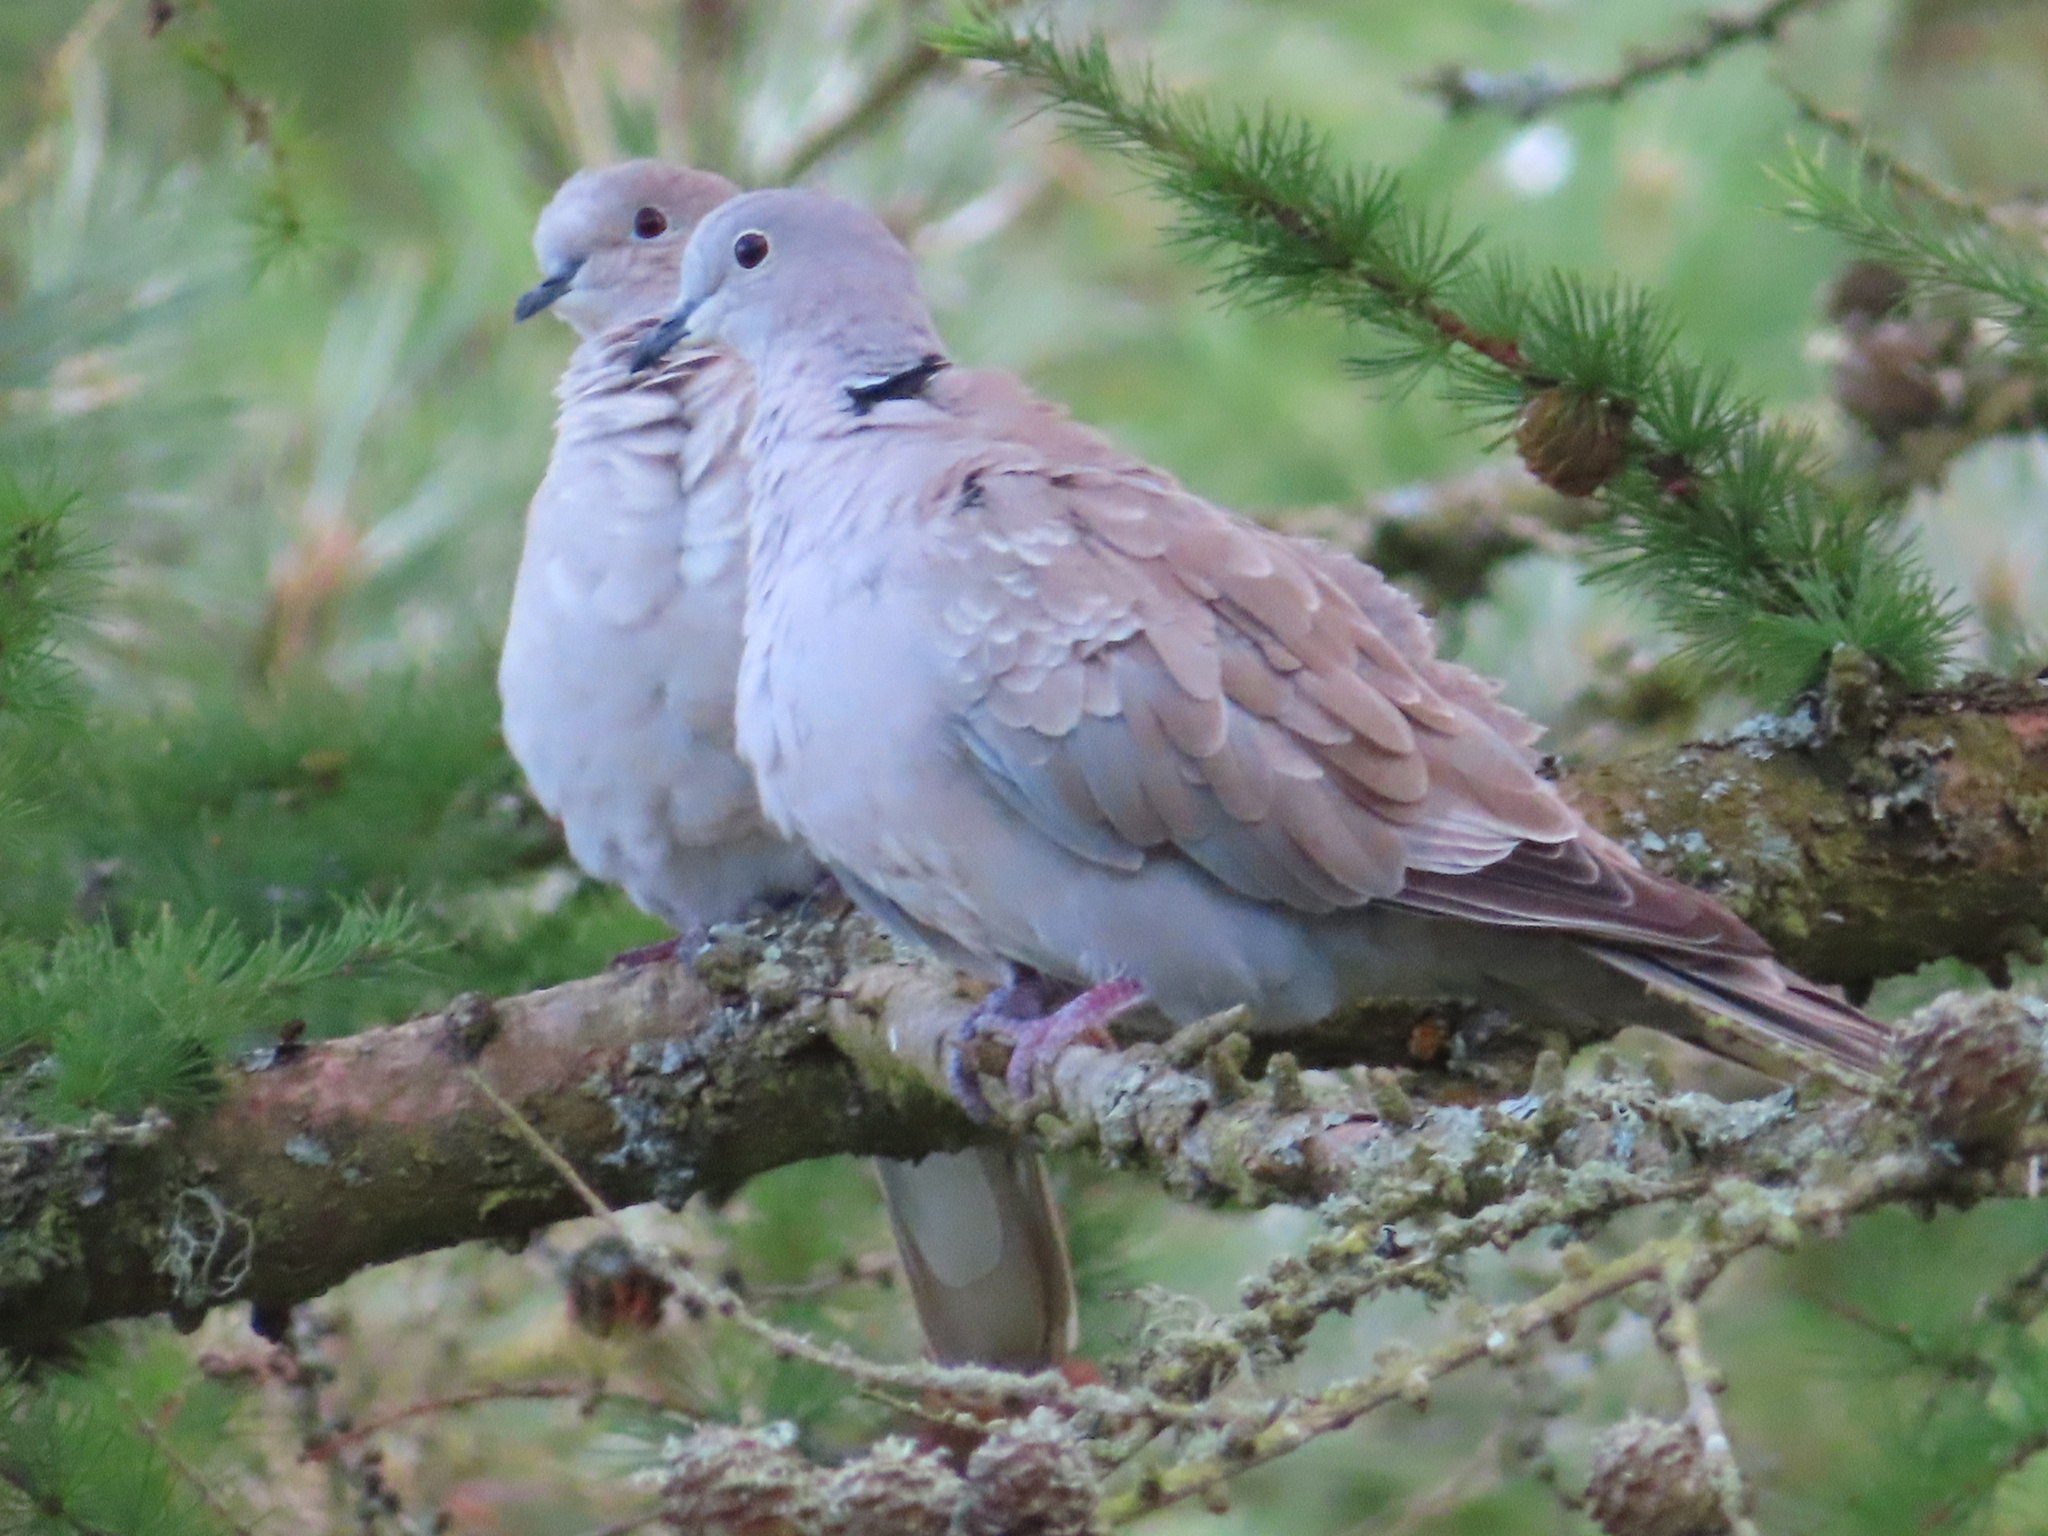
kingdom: Animalia
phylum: Chordata
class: Aves
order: Columbiformes
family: Columbidae
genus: Streptopelia
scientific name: Streptopelia decaocto
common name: Eurasian collared dove
